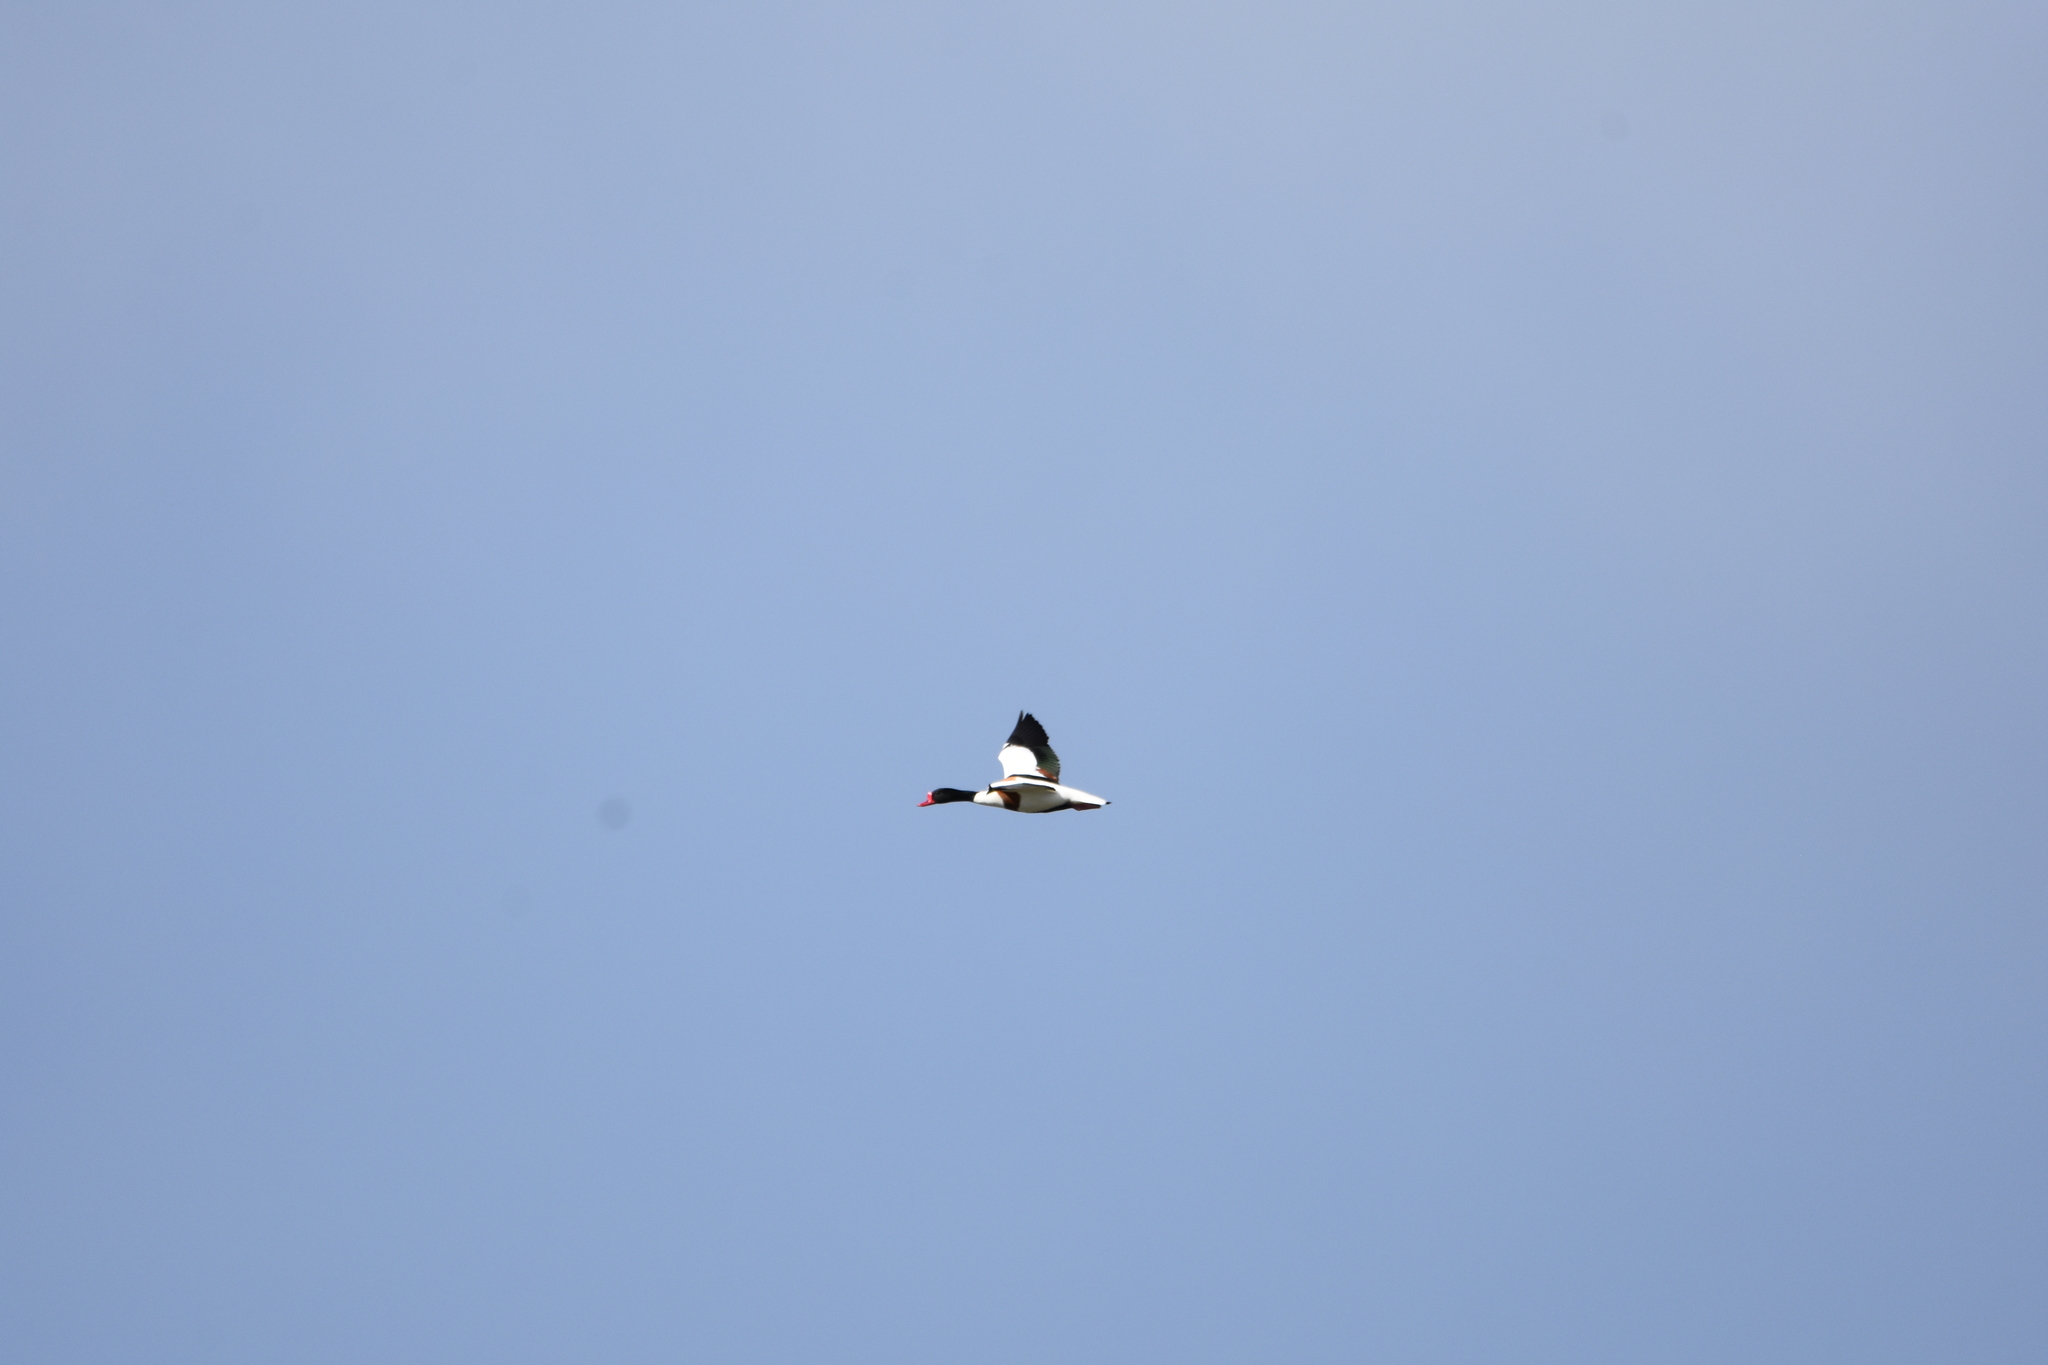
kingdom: Animalia
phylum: Chordata
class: Aves
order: Anseriformes
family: Anatidae
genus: Tadorna
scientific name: Tadorna tadorna
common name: Common shelduck
